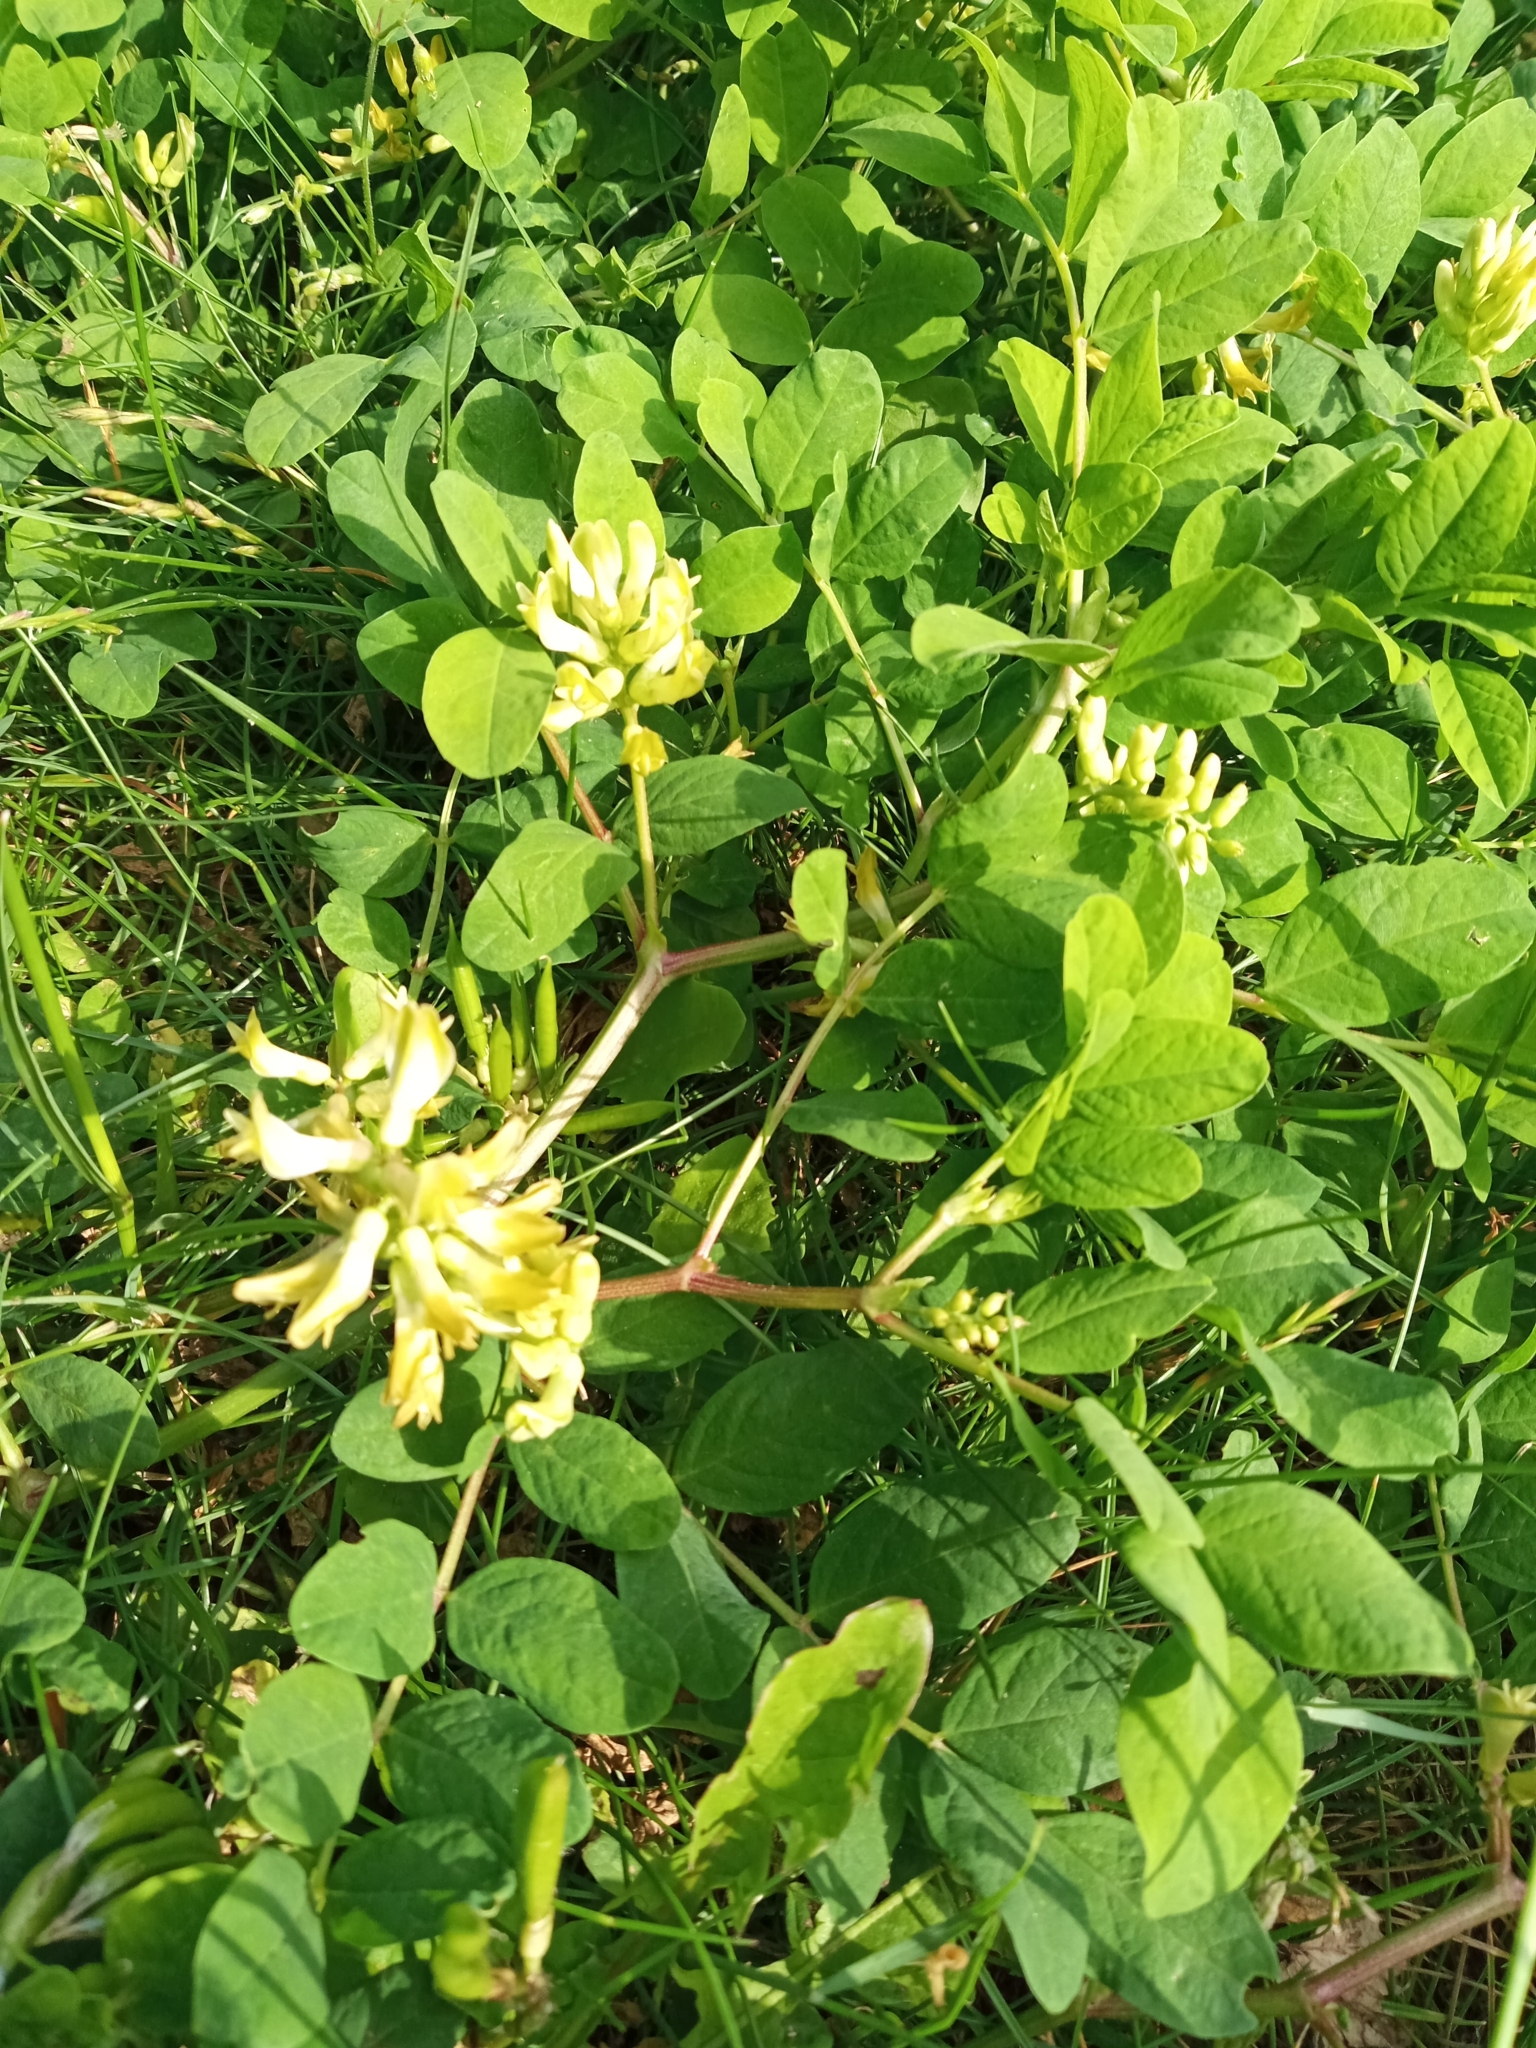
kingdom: Plantae
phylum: Tracheophyta
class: Magnoliopsida
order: Fabales
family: Fabaceae
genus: Astragalus
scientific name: Astragalus glycyphyllos
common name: Wild liquorice
